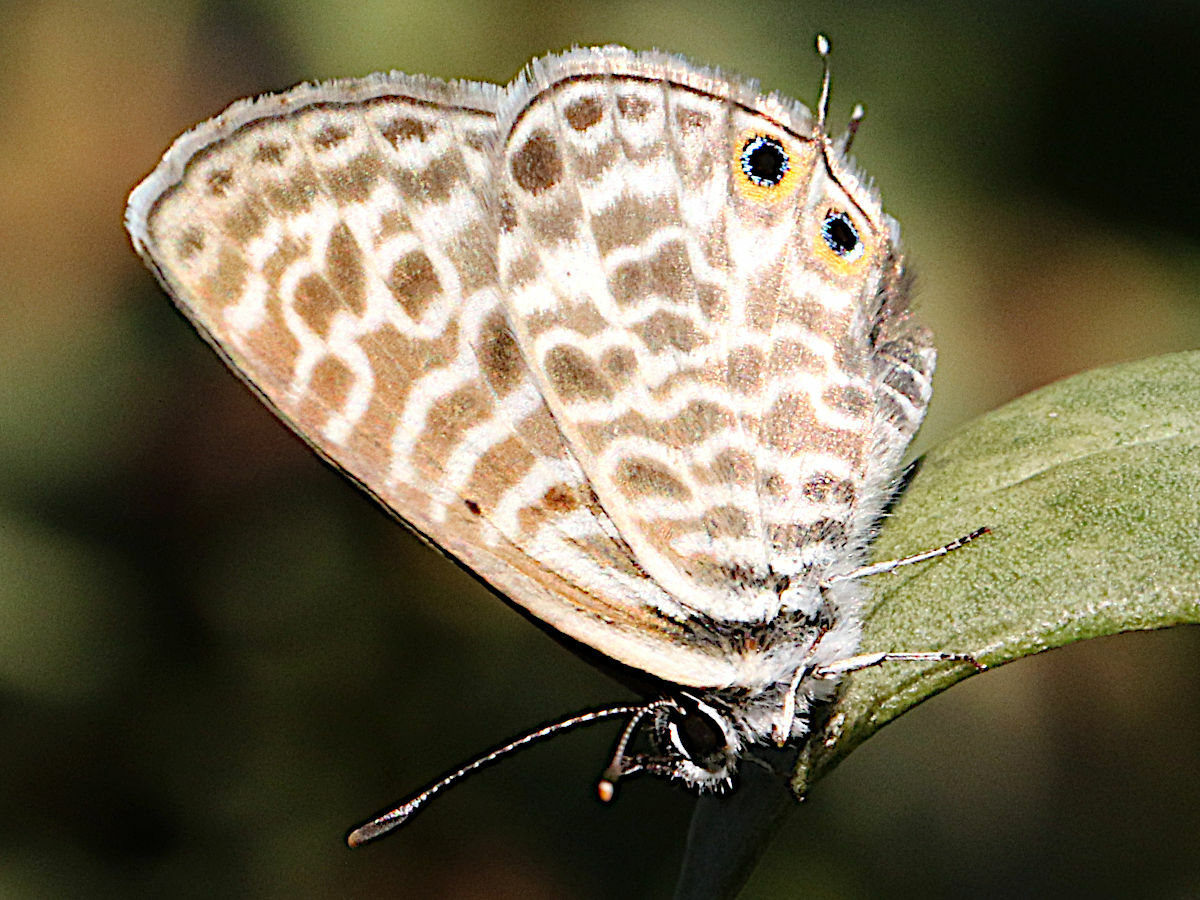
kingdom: Animalia
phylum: Arthropoda
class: Insecta
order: Lepidoptera
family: Lycaenidae
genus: Leptotes
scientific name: Leptotes pirithous
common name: Lang's short-tailed blue
